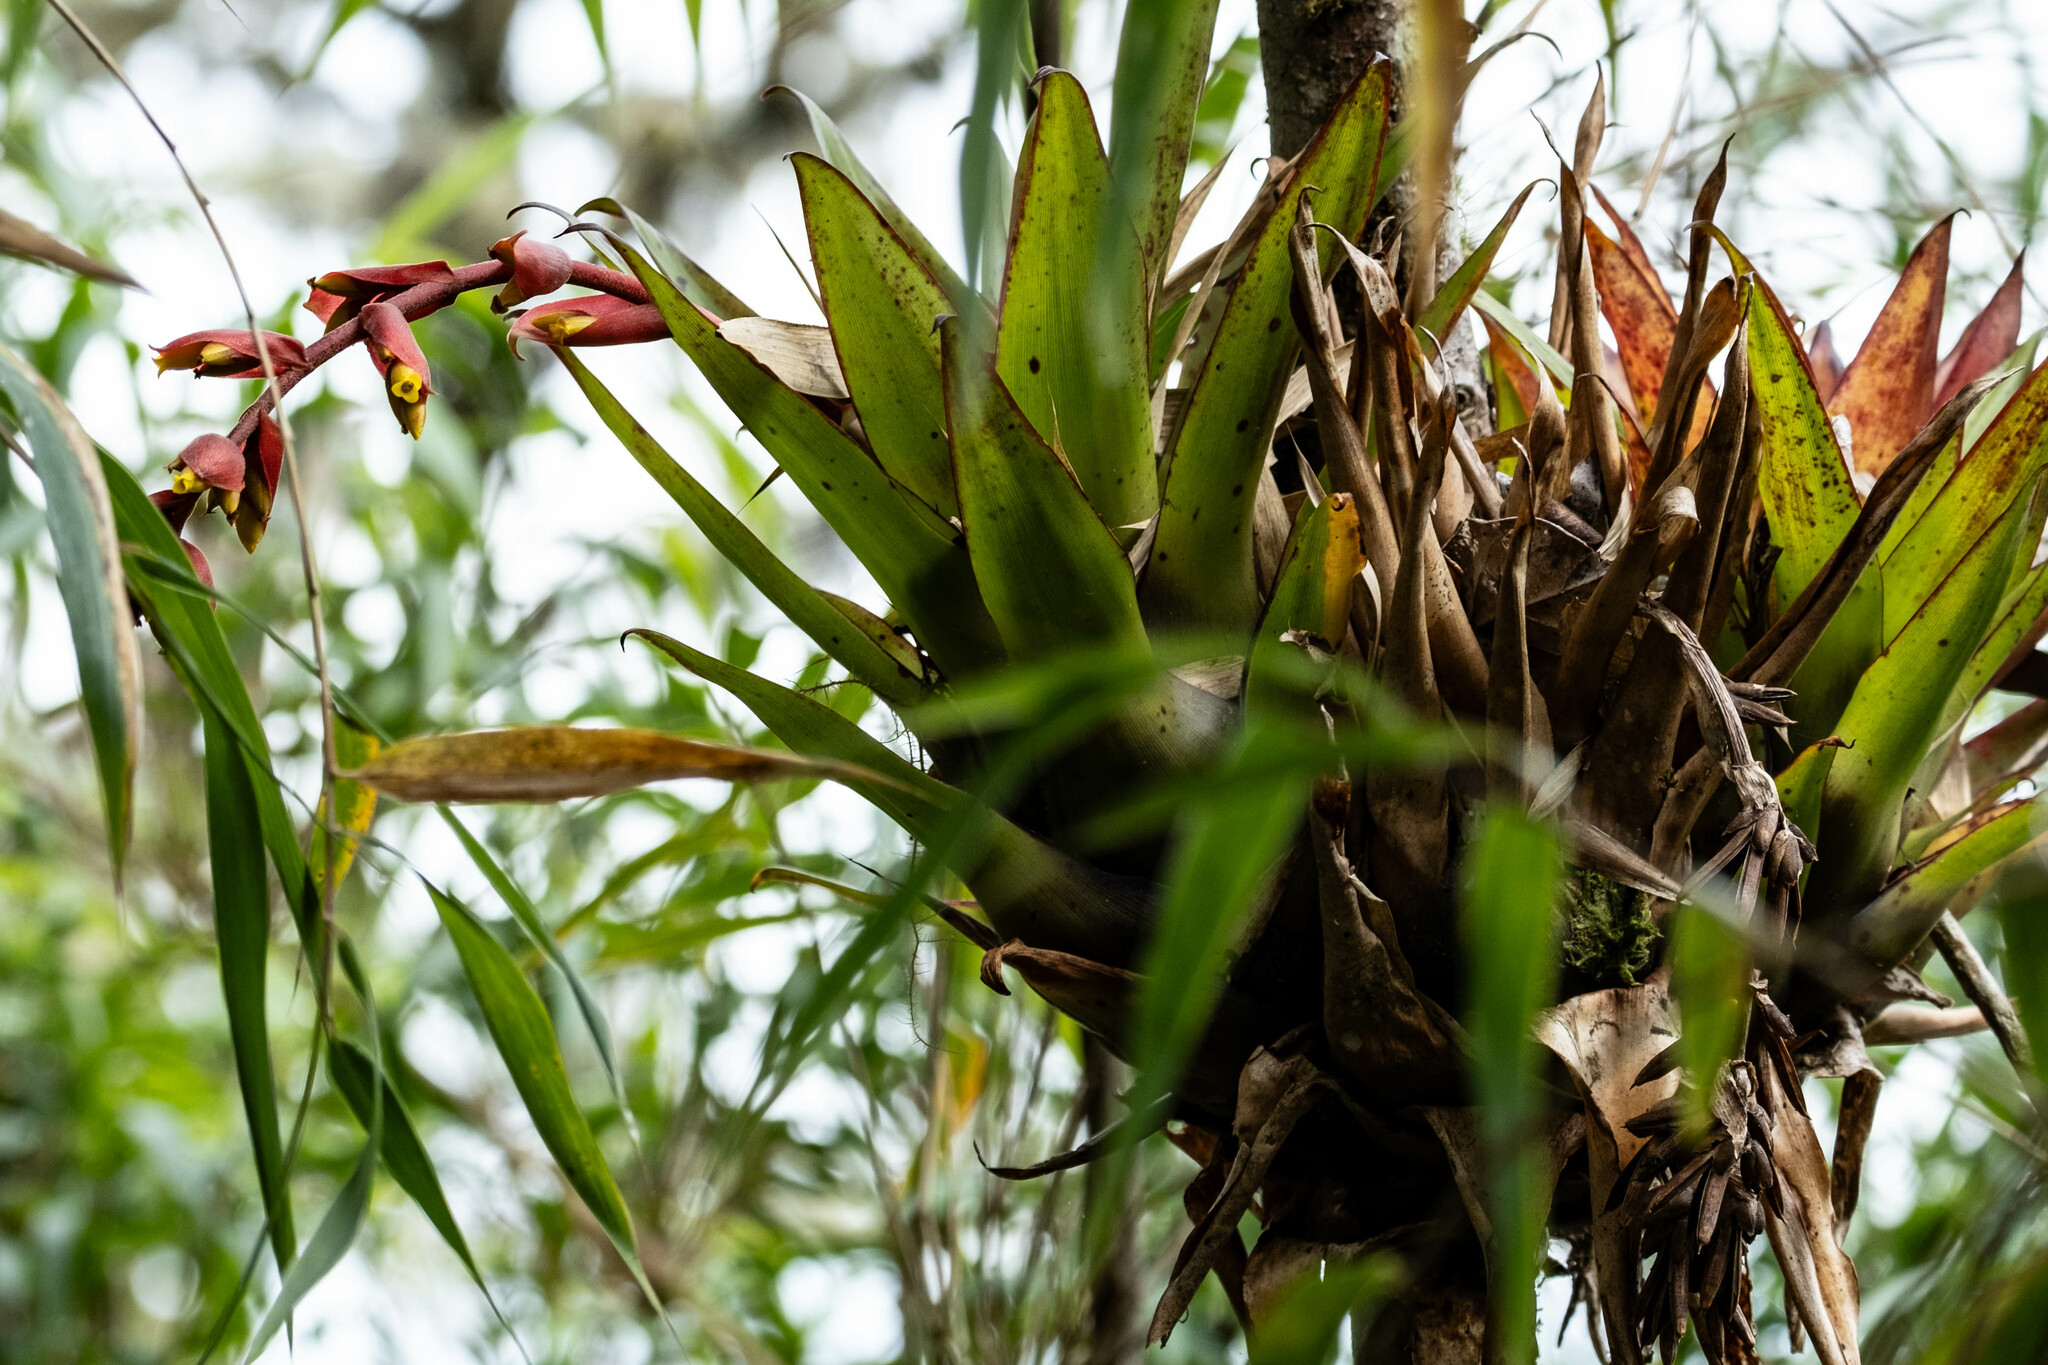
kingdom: Plantae
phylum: Tracheophyta
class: Liliopsida
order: Poales
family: Bromeliaceae
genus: Racinaea
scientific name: Racinaea tetrantha
